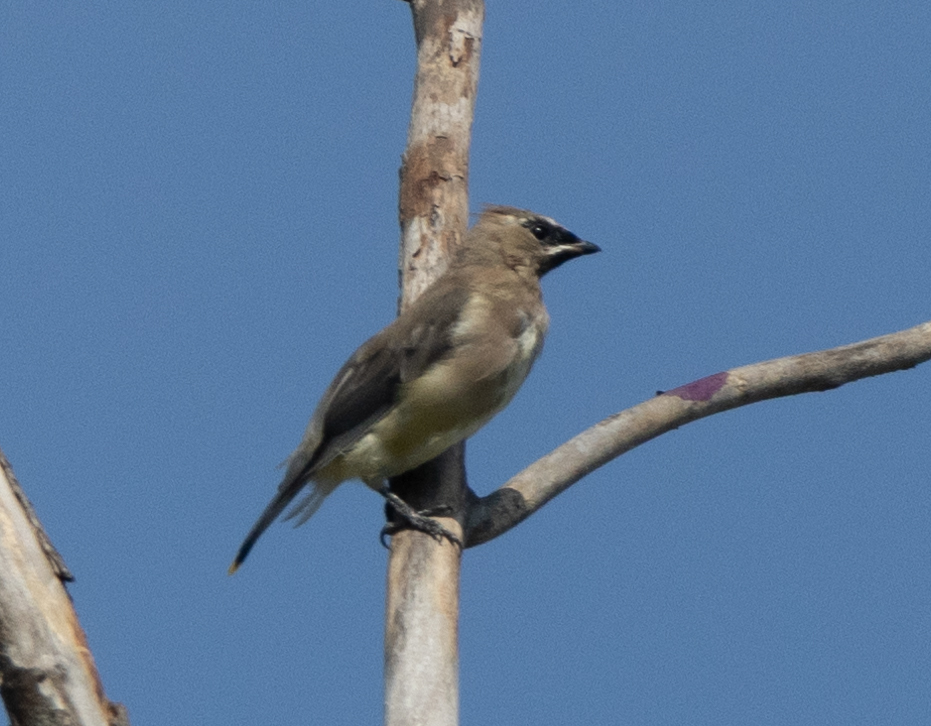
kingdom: Animalia
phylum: Chordata
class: Aves
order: Passeriformes
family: Bombycillidae
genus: Bombycilla
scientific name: Bombycilla cedrorum
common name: Cedar waxwing
